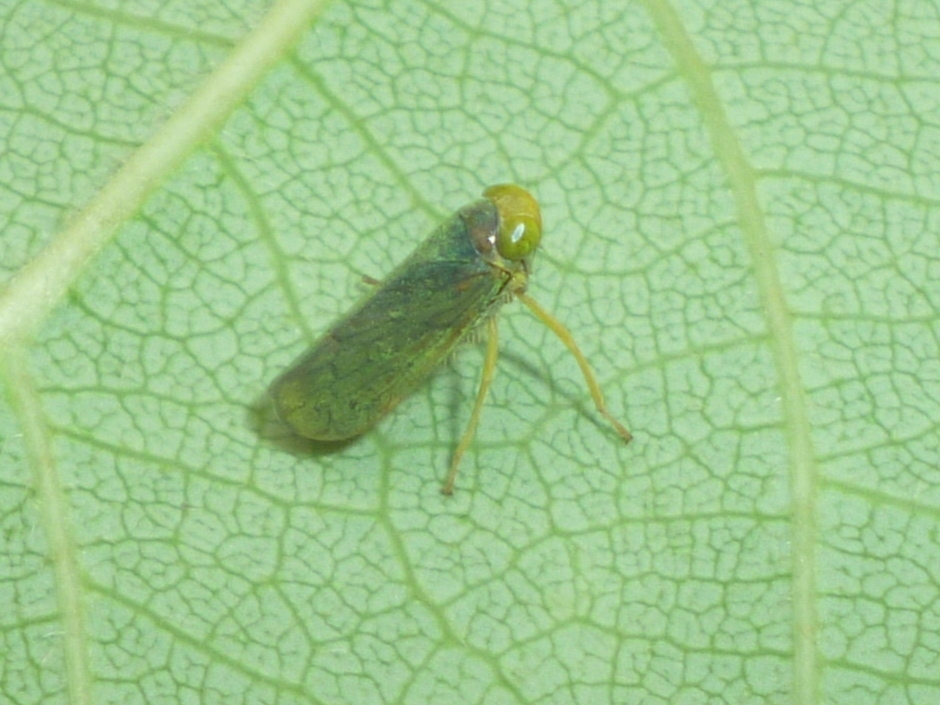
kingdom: Animalia
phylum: Arthropoda
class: Insecta
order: Hemiptera
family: Cicadellidae
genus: Jikradia
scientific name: Jikradia olitoria
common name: Coppery leafhopper
